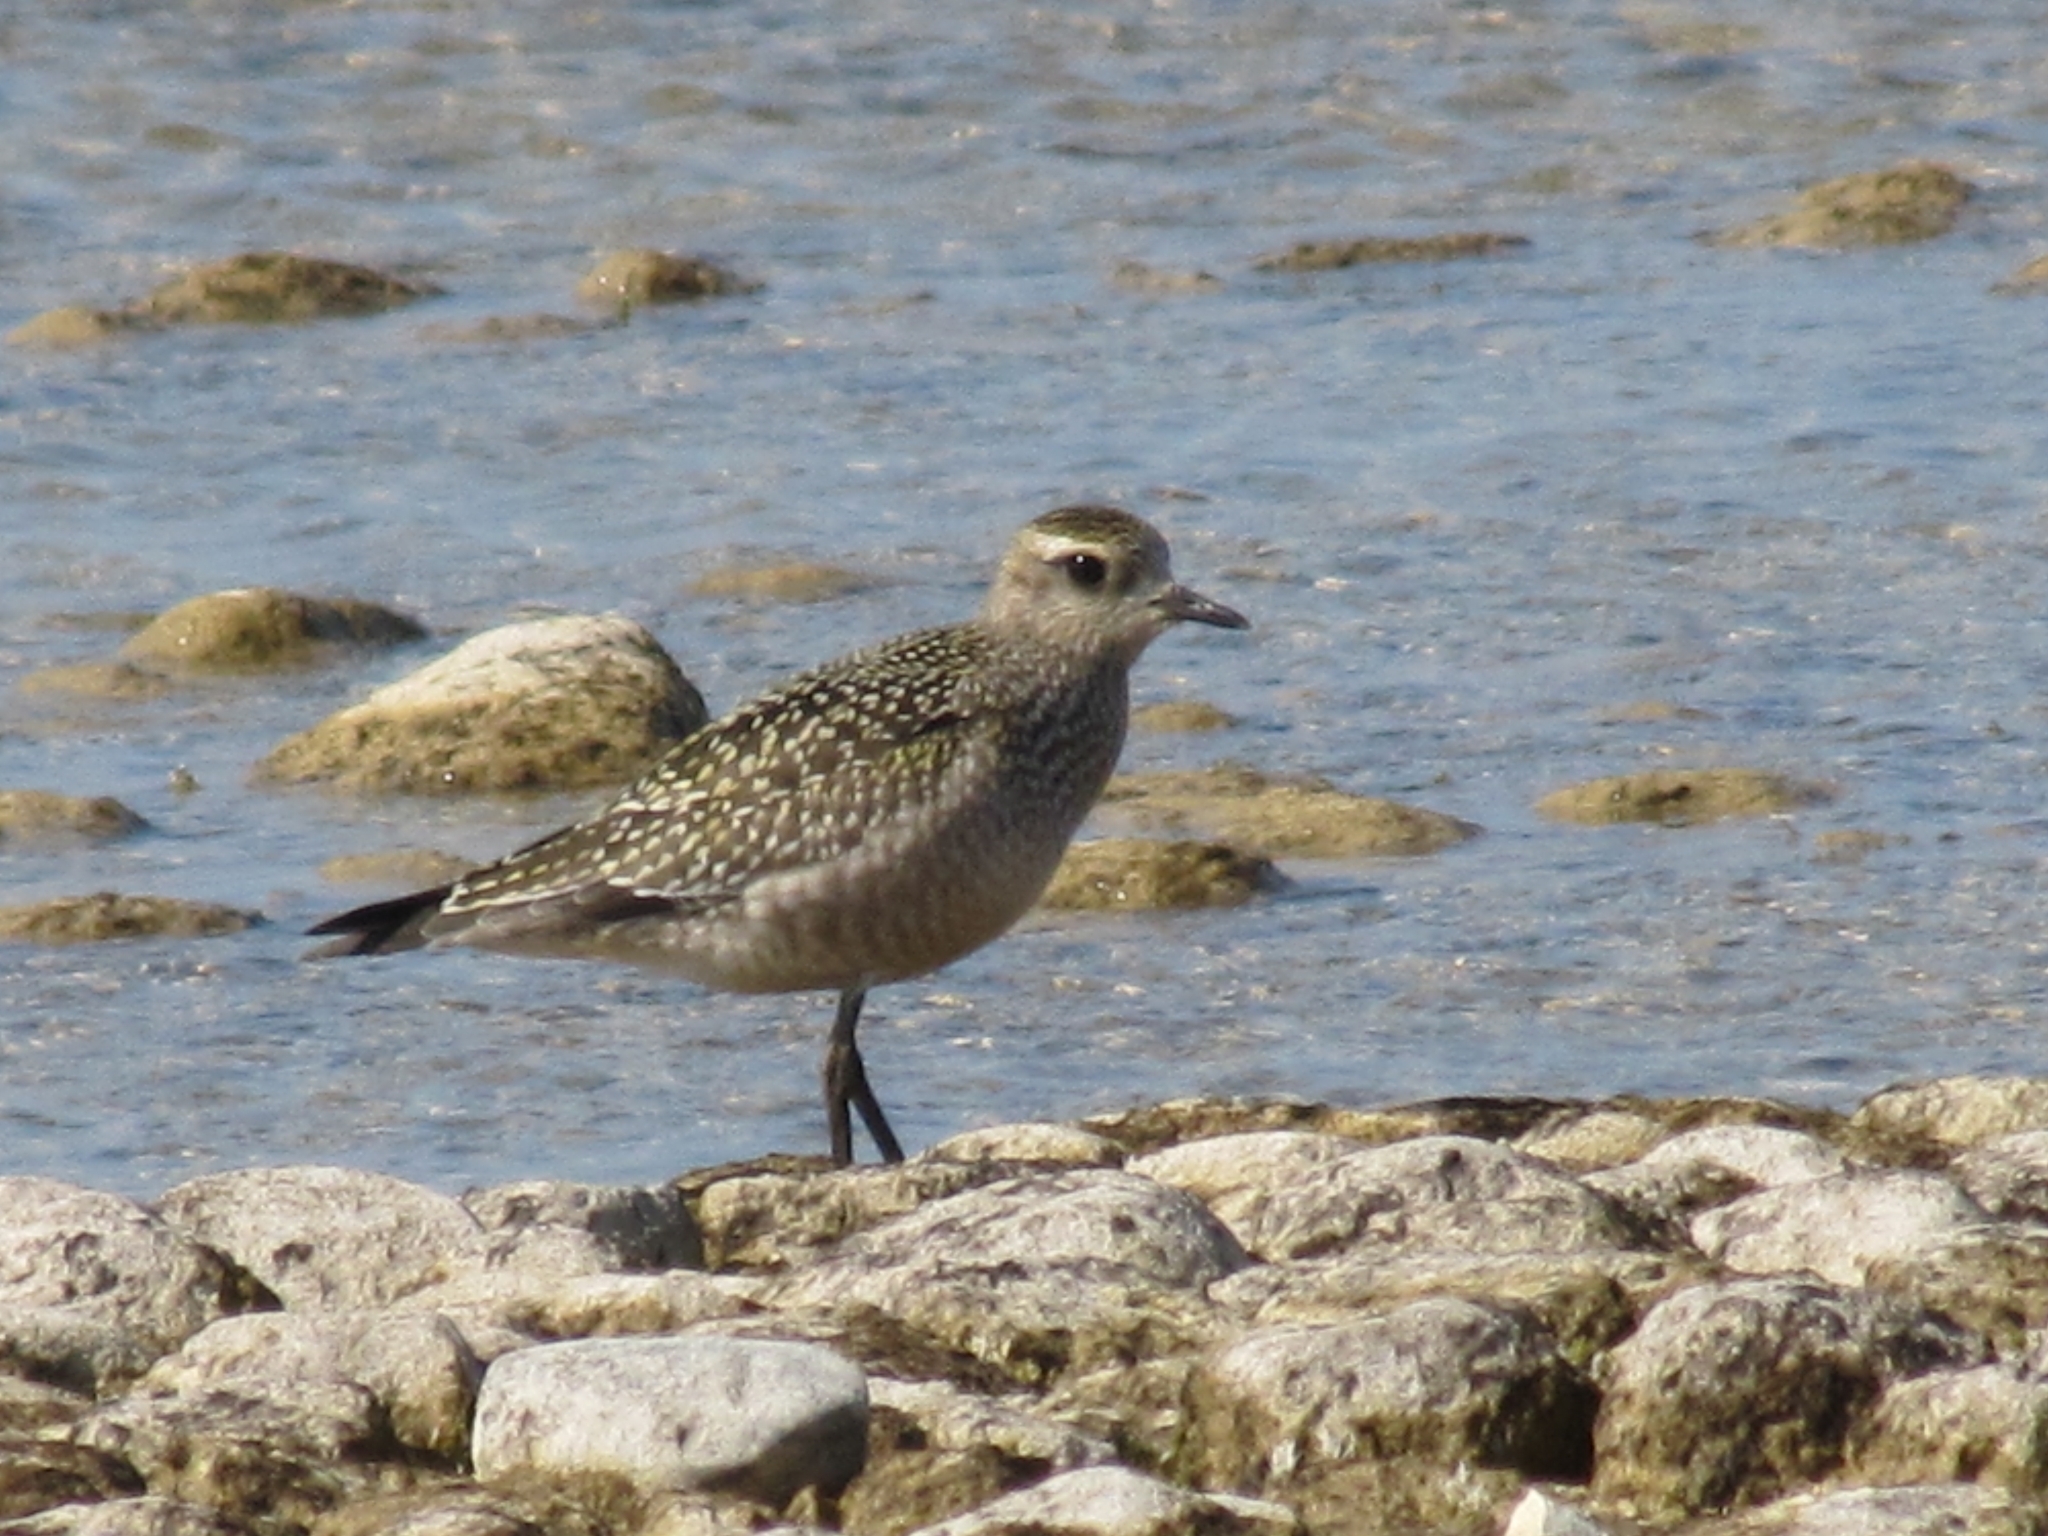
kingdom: Animalia
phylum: Chordata
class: Aves
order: Charadriiformes
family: Charadriidae
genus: Pluvialis
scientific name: Pluvialis dominica
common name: American golden plover
